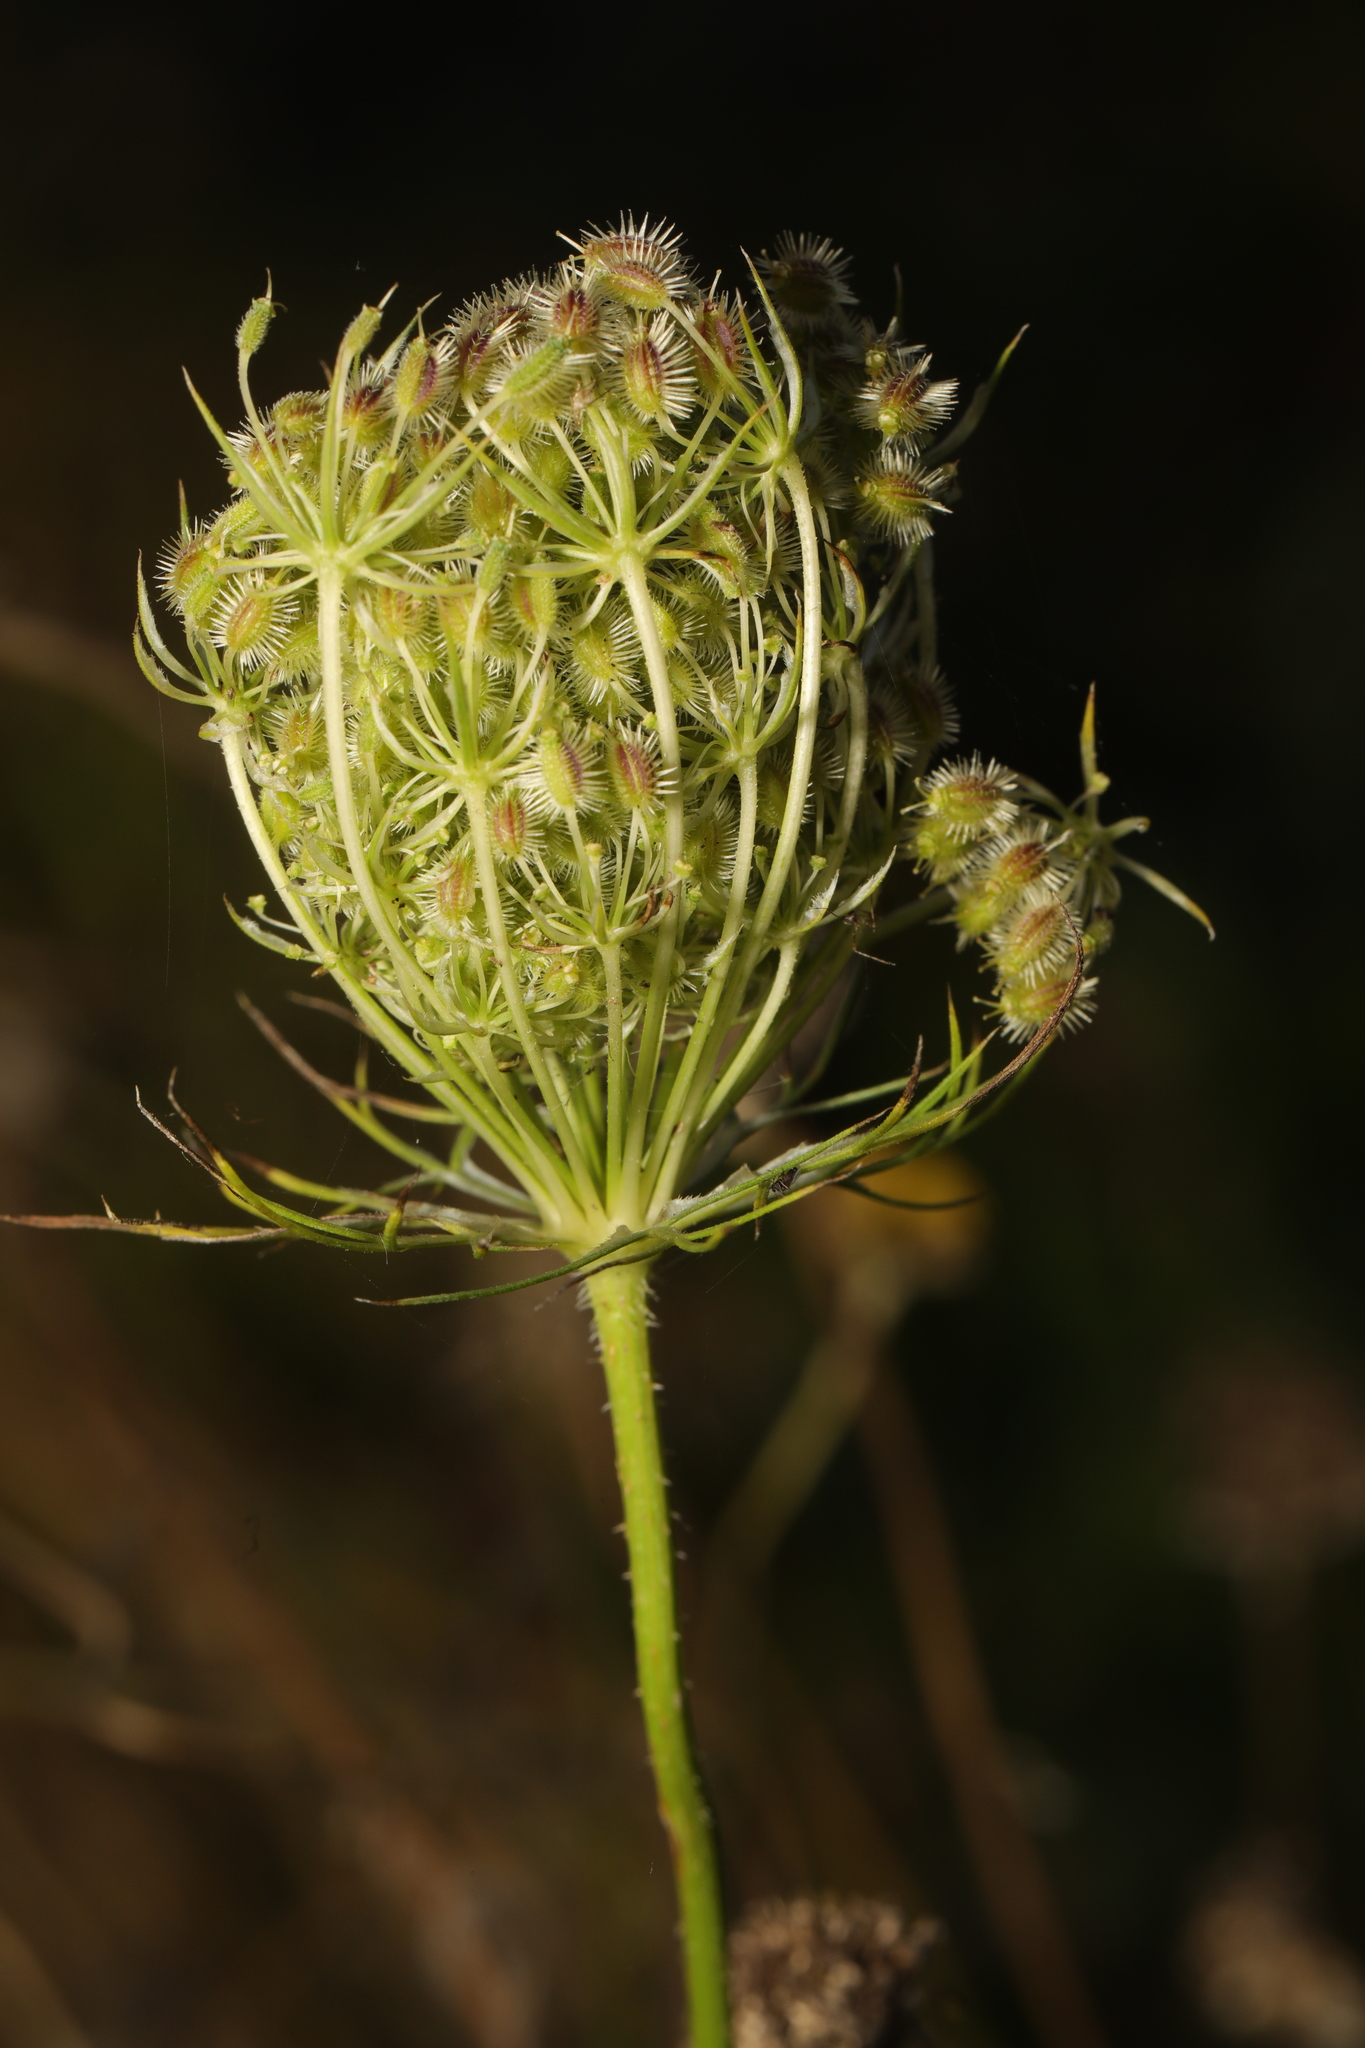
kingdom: Plantae
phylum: Tracheophyta
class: Magnoliopsida
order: Apiales
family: Apiaceae
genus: Daucus
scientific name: Daucus carota
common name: Wild carrot
